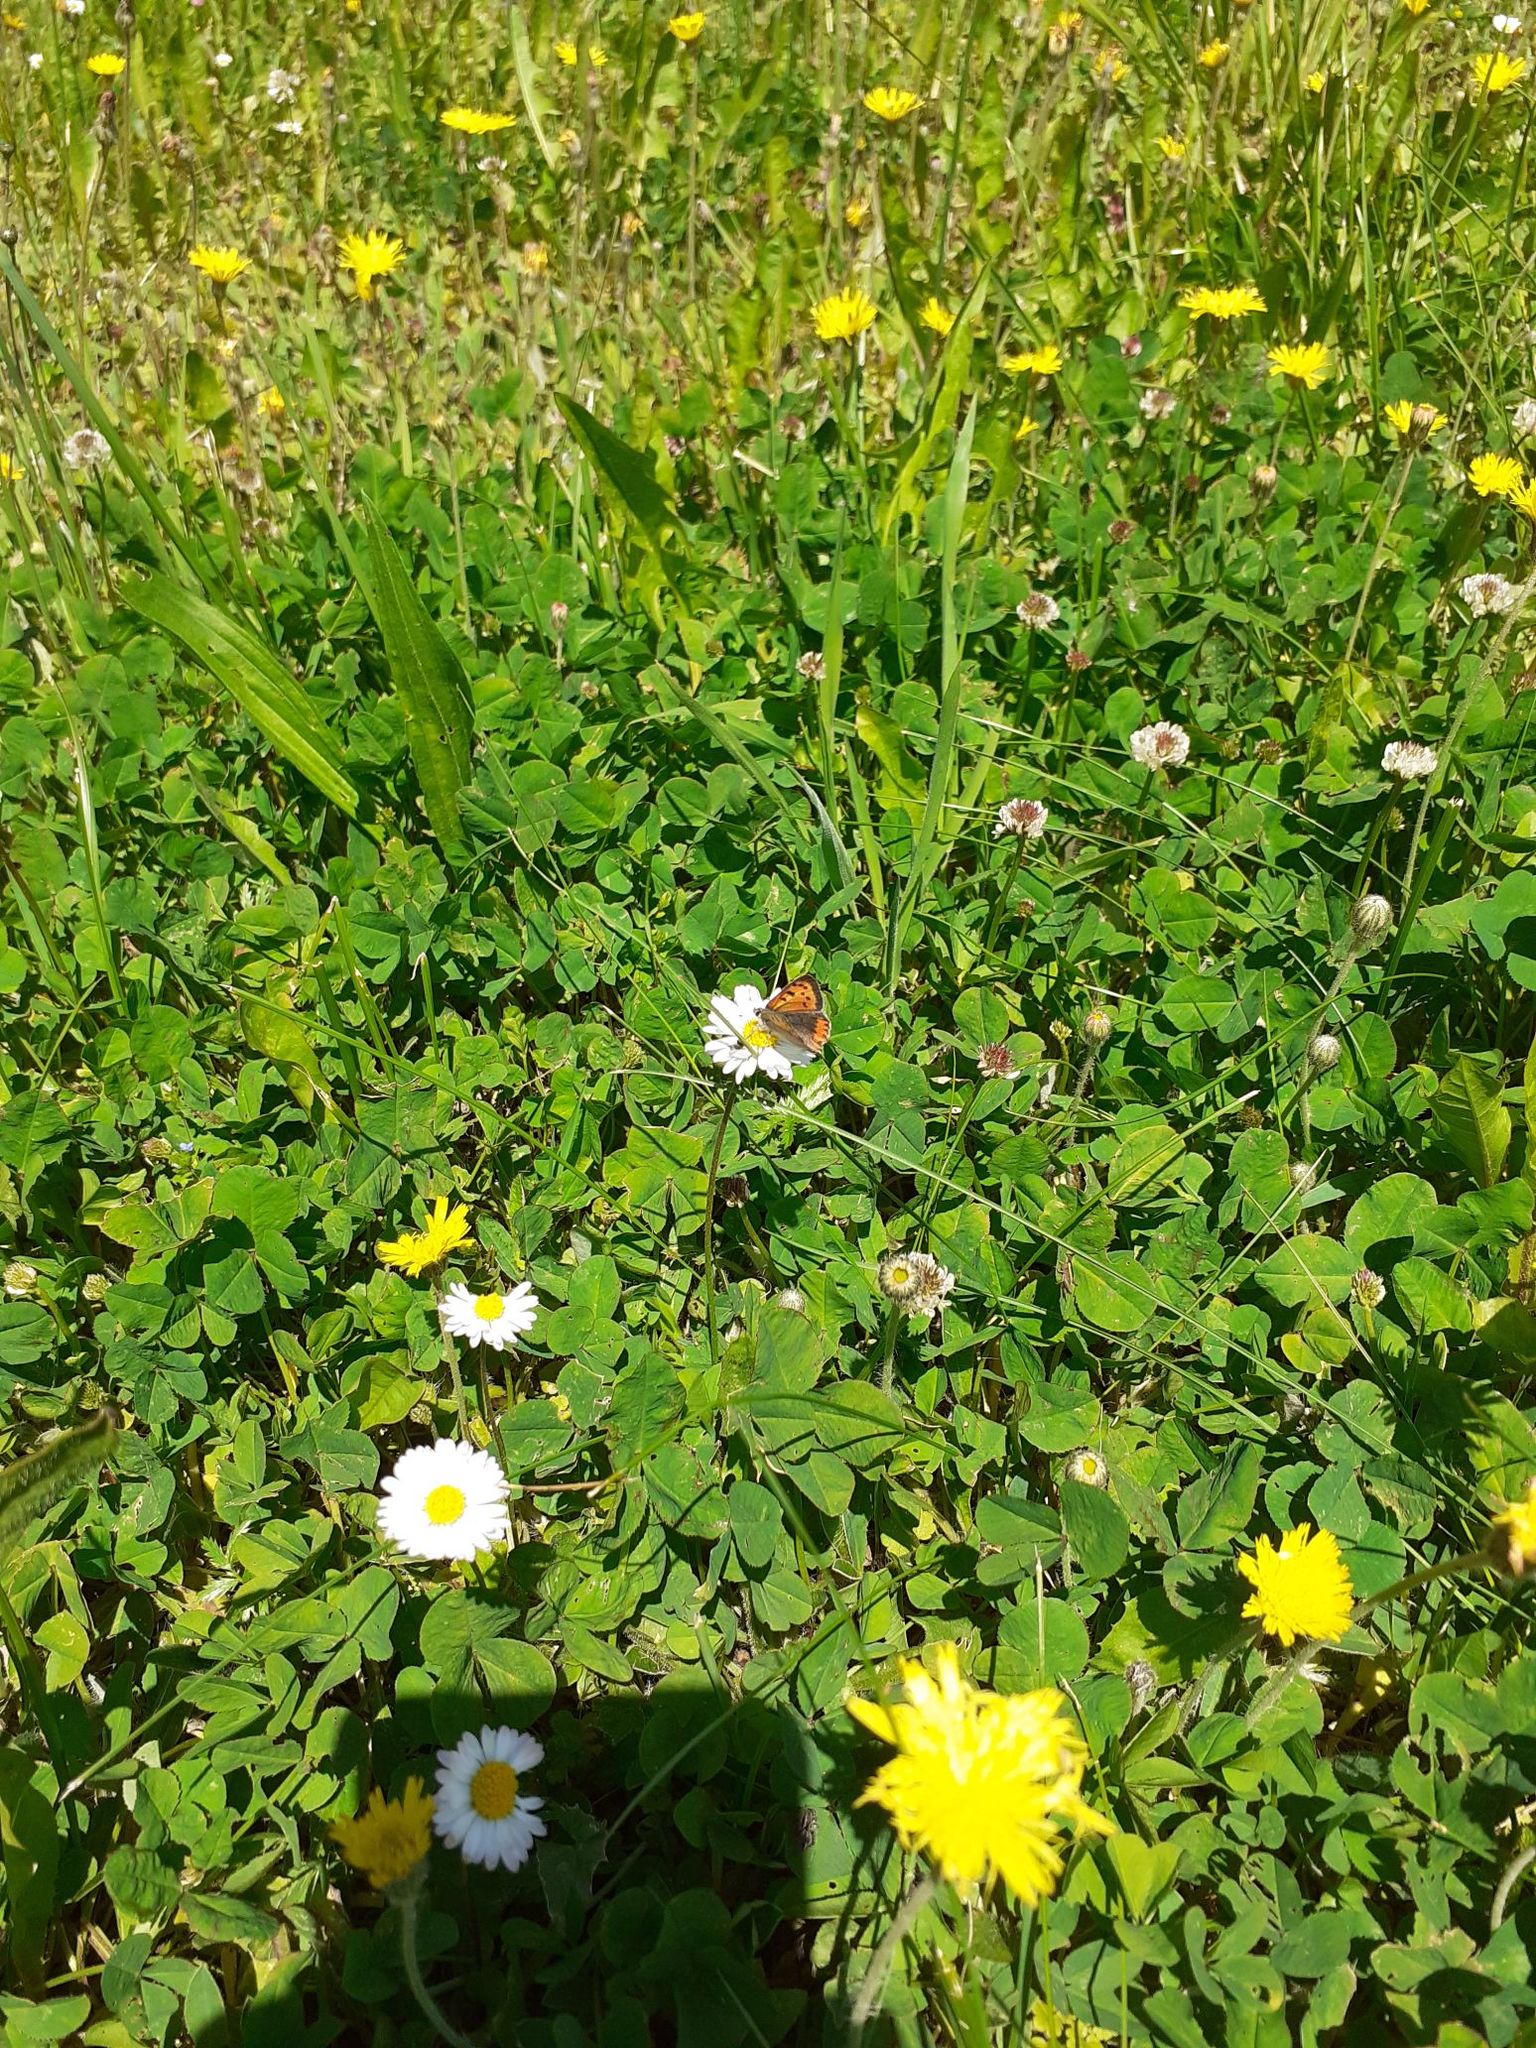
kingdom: Animalia
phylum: Arthropoda
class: Insecta
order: Lepidoptera
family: Lycaenidae
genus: Lycaena
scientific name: Lycaena phlaeas
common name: Small copper
